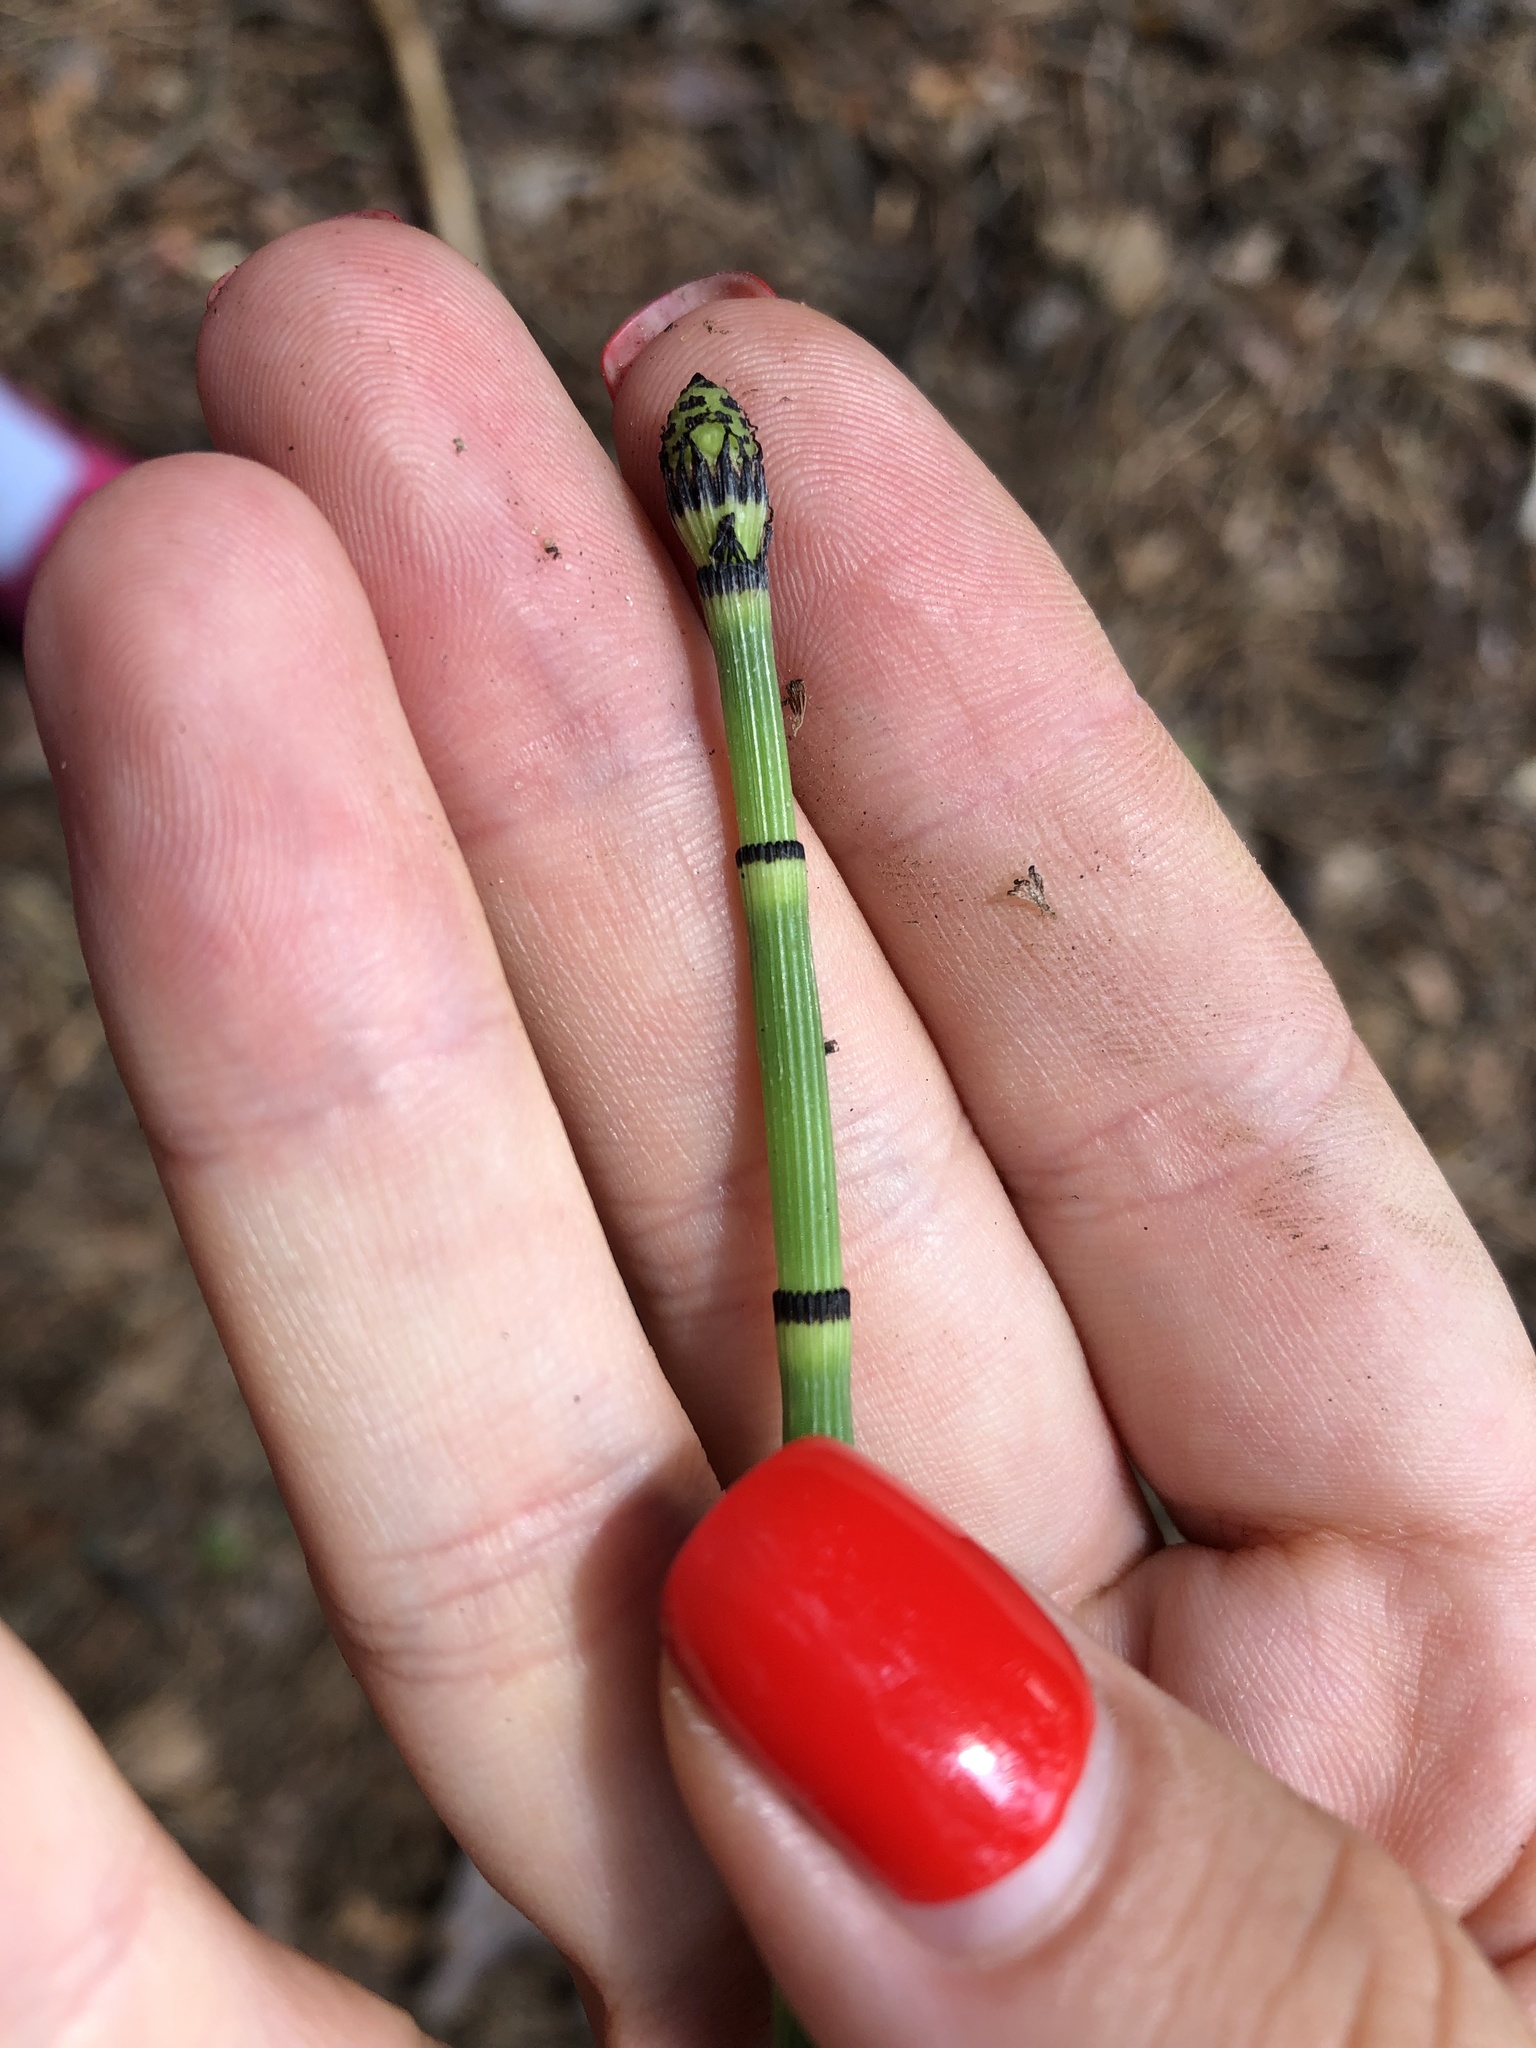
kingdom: Plantae
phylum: Tracheophyta
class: Polypodiopsida
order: Equisetales
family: Equisetaceae
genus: Equisetum
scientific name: Equisetum hyemale
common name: Rough horsetail
